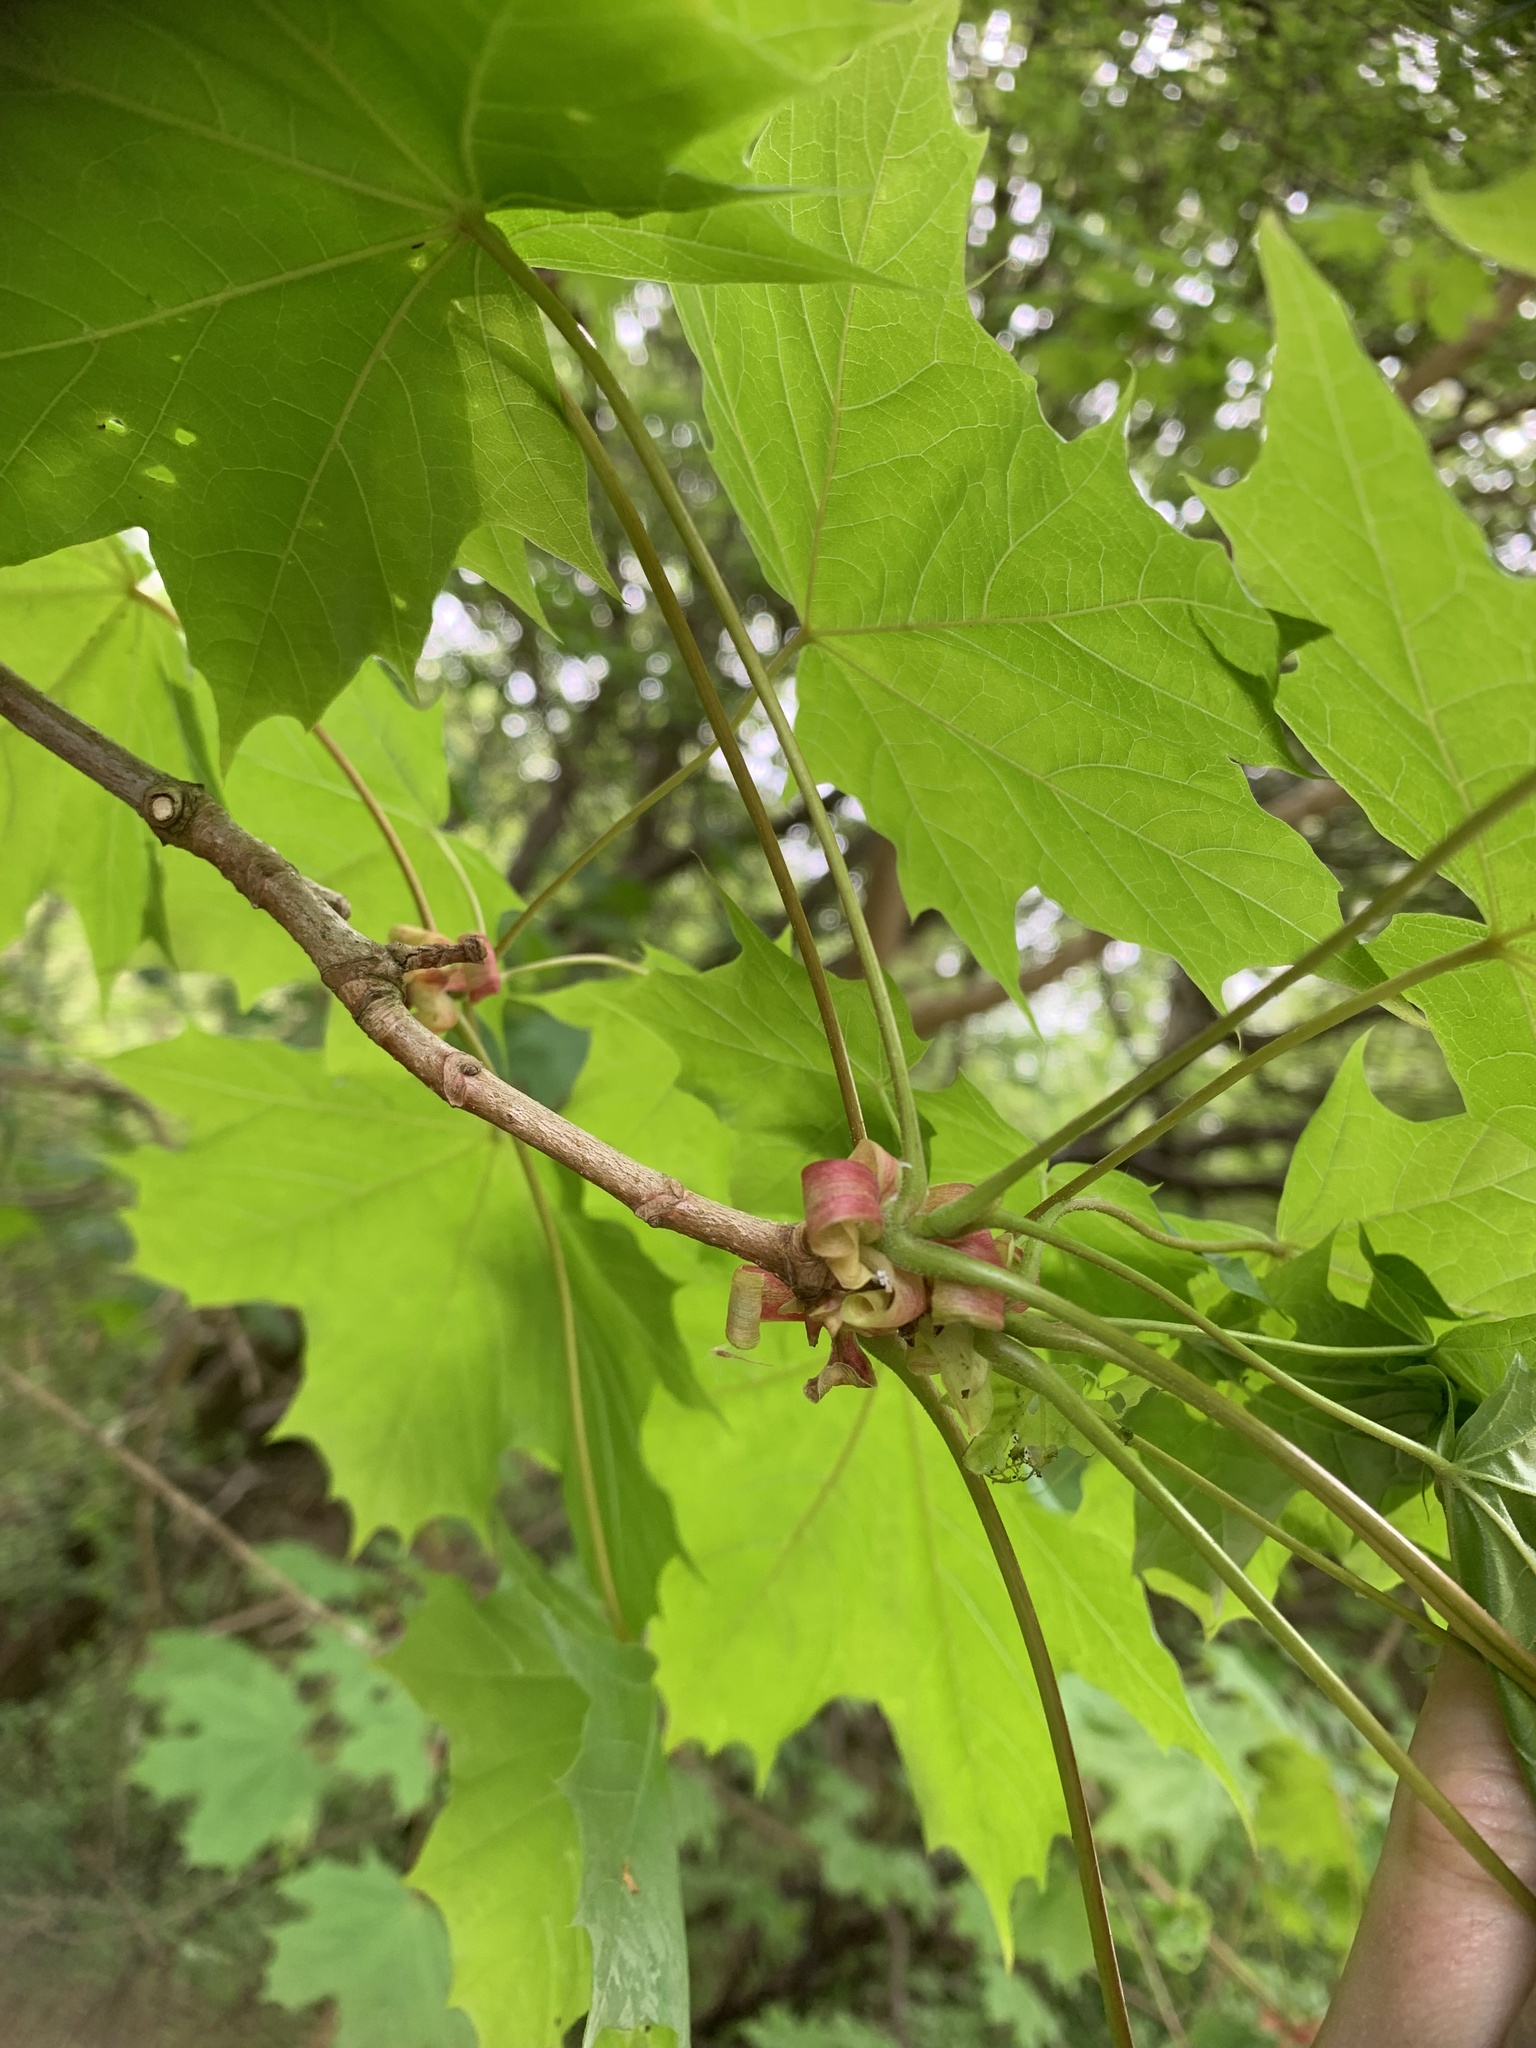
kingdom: Plantae
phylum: Tracheophyta
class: Magnoliopsida
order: Sapindales
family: Sapindaceae
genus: Acer
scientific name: Acer platanoides
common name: Norway maple
